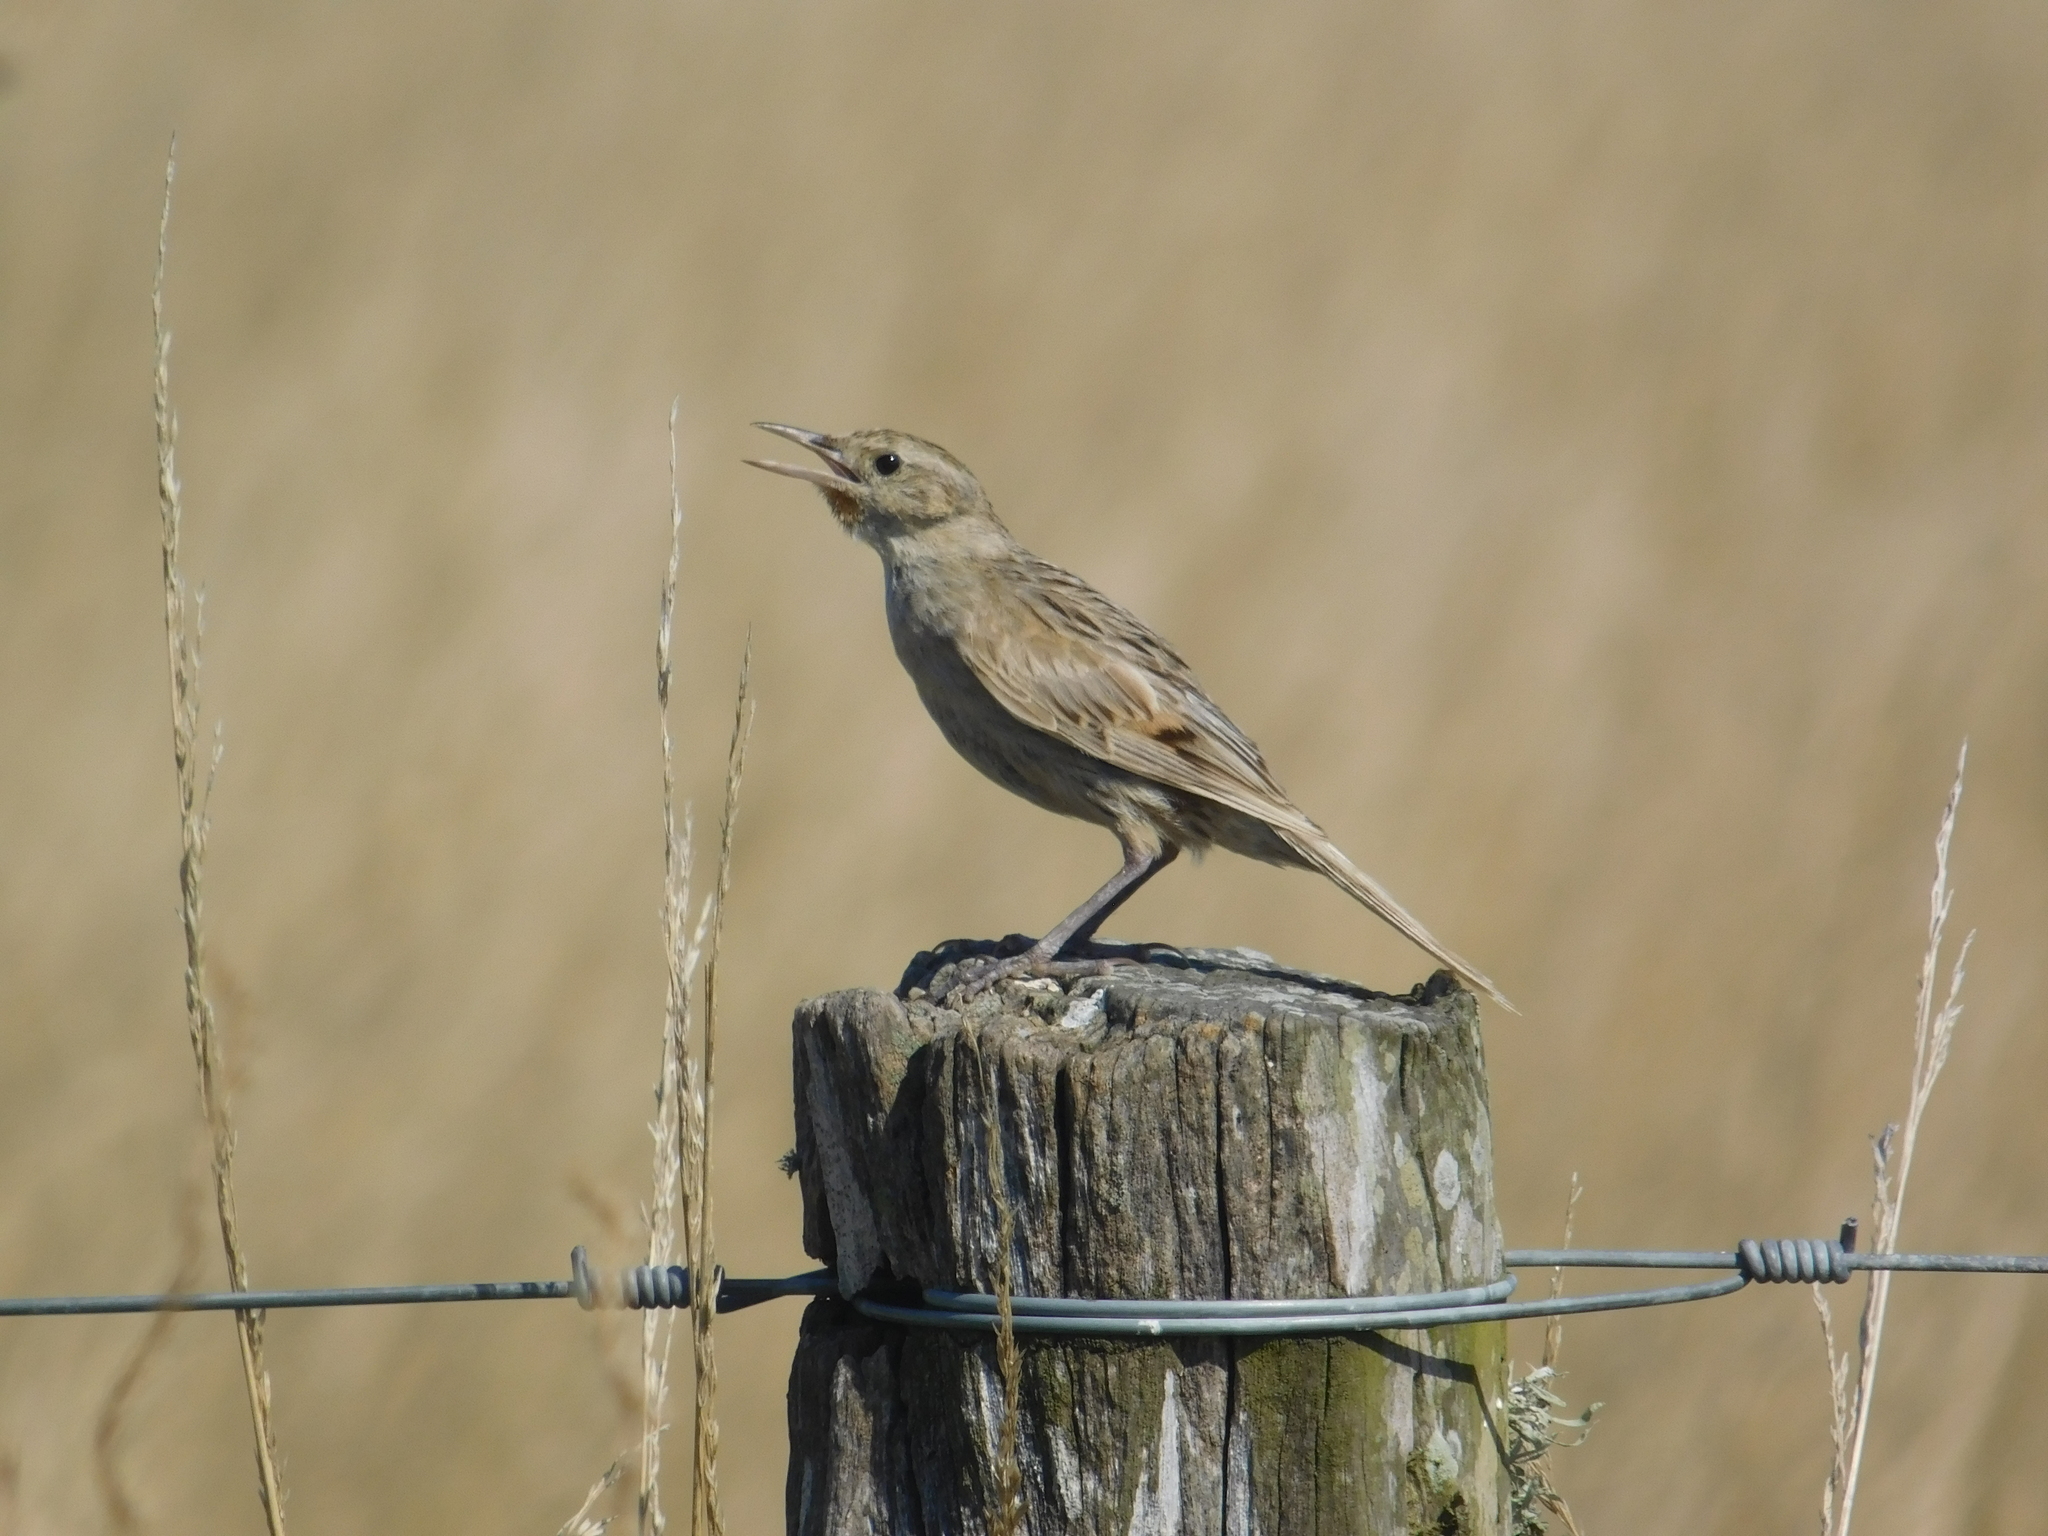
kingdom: Animalia
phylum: Chordata
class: Aves
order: Passeriformes
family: Furnariidae
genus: Asthenes
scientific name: Asthenes hudsoni
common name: Hudson's canastero
